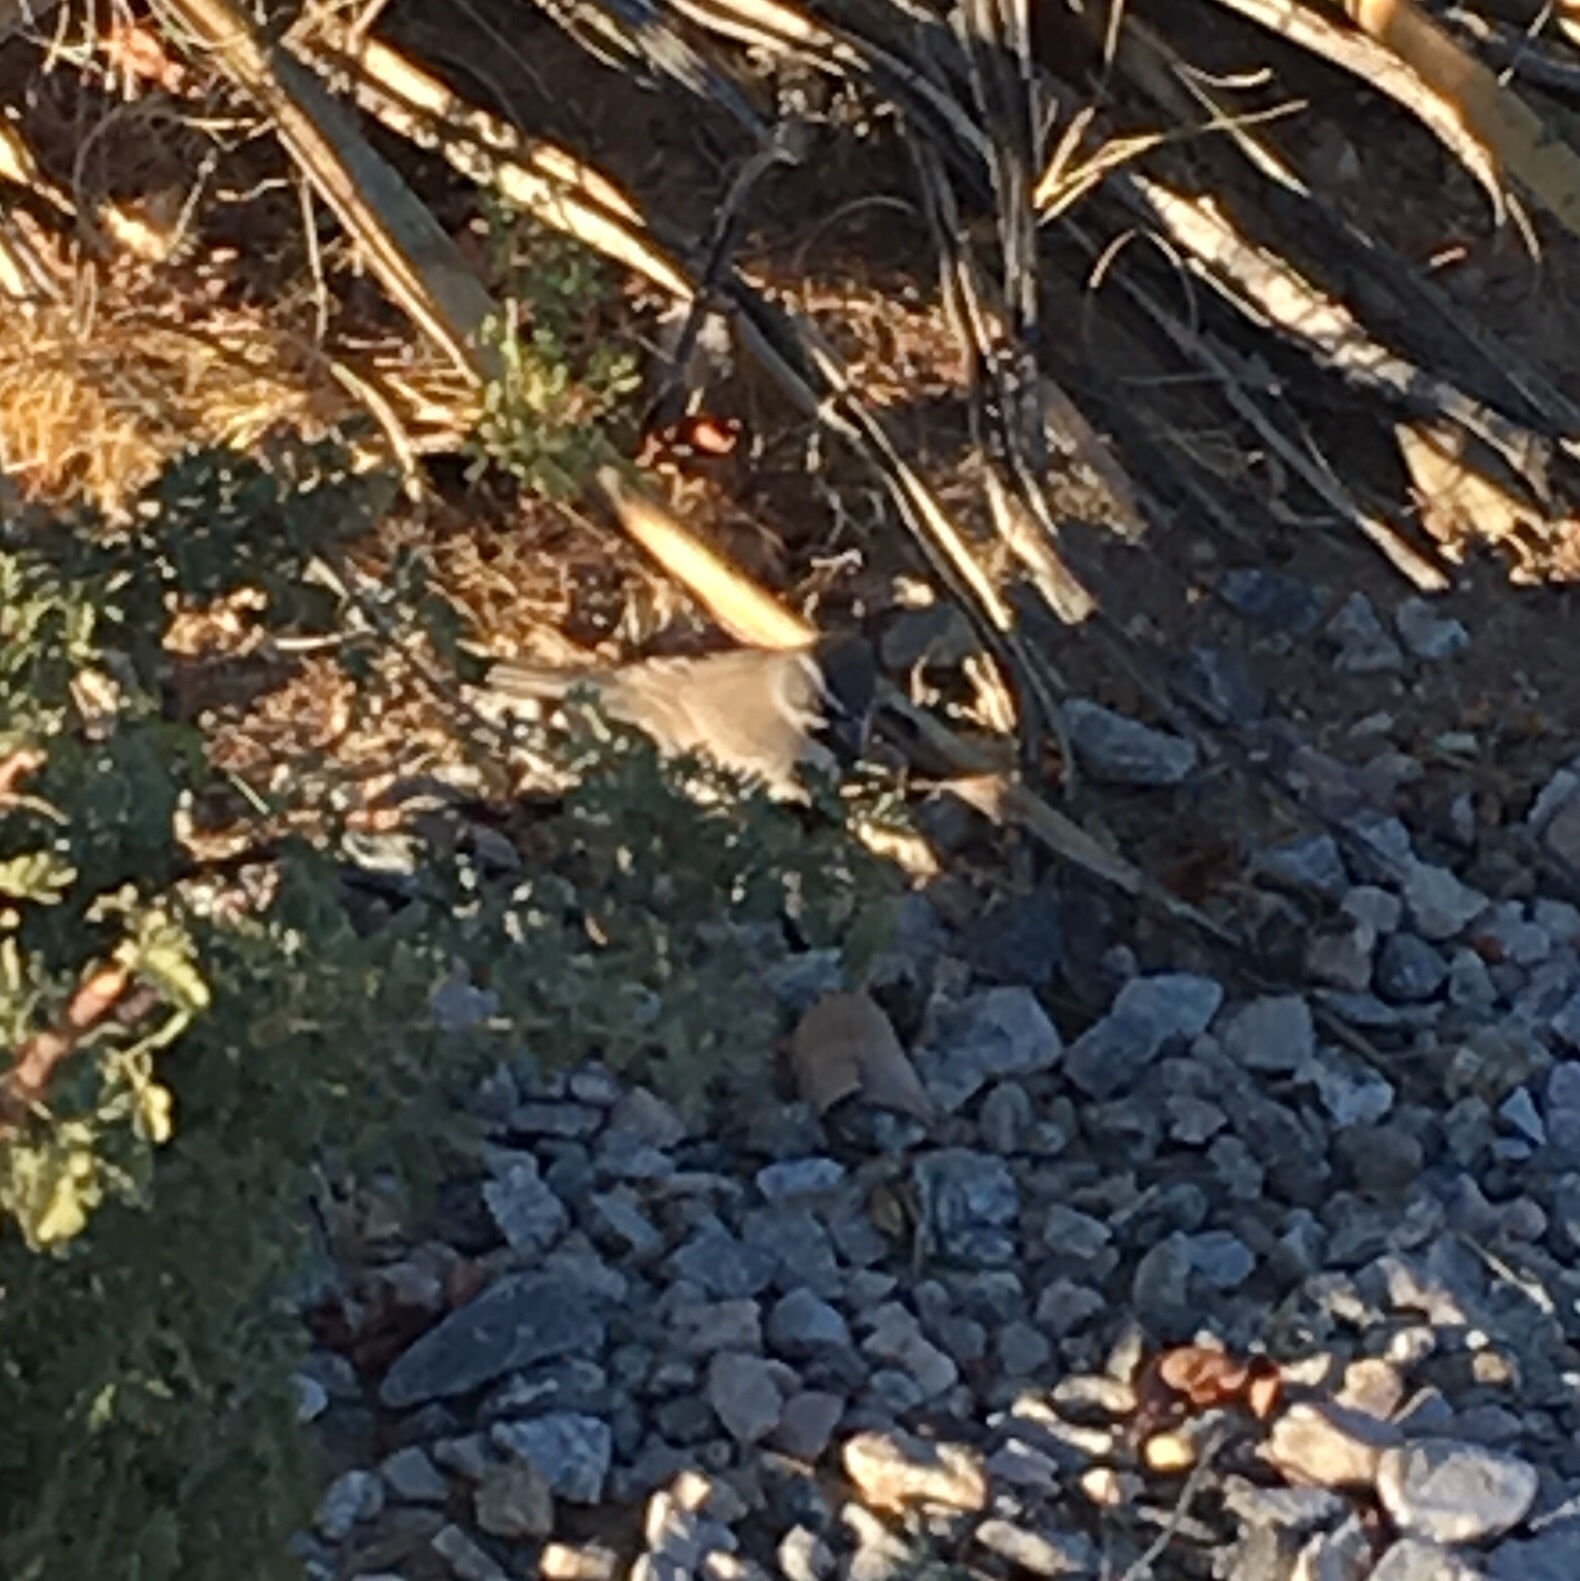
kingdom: Animalia
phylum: Chordata
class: Aves
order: Passeriformes
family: Passerellidae
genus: Amphispiza
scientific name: Amphispiza bilineata
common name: Black-throated sparrow
